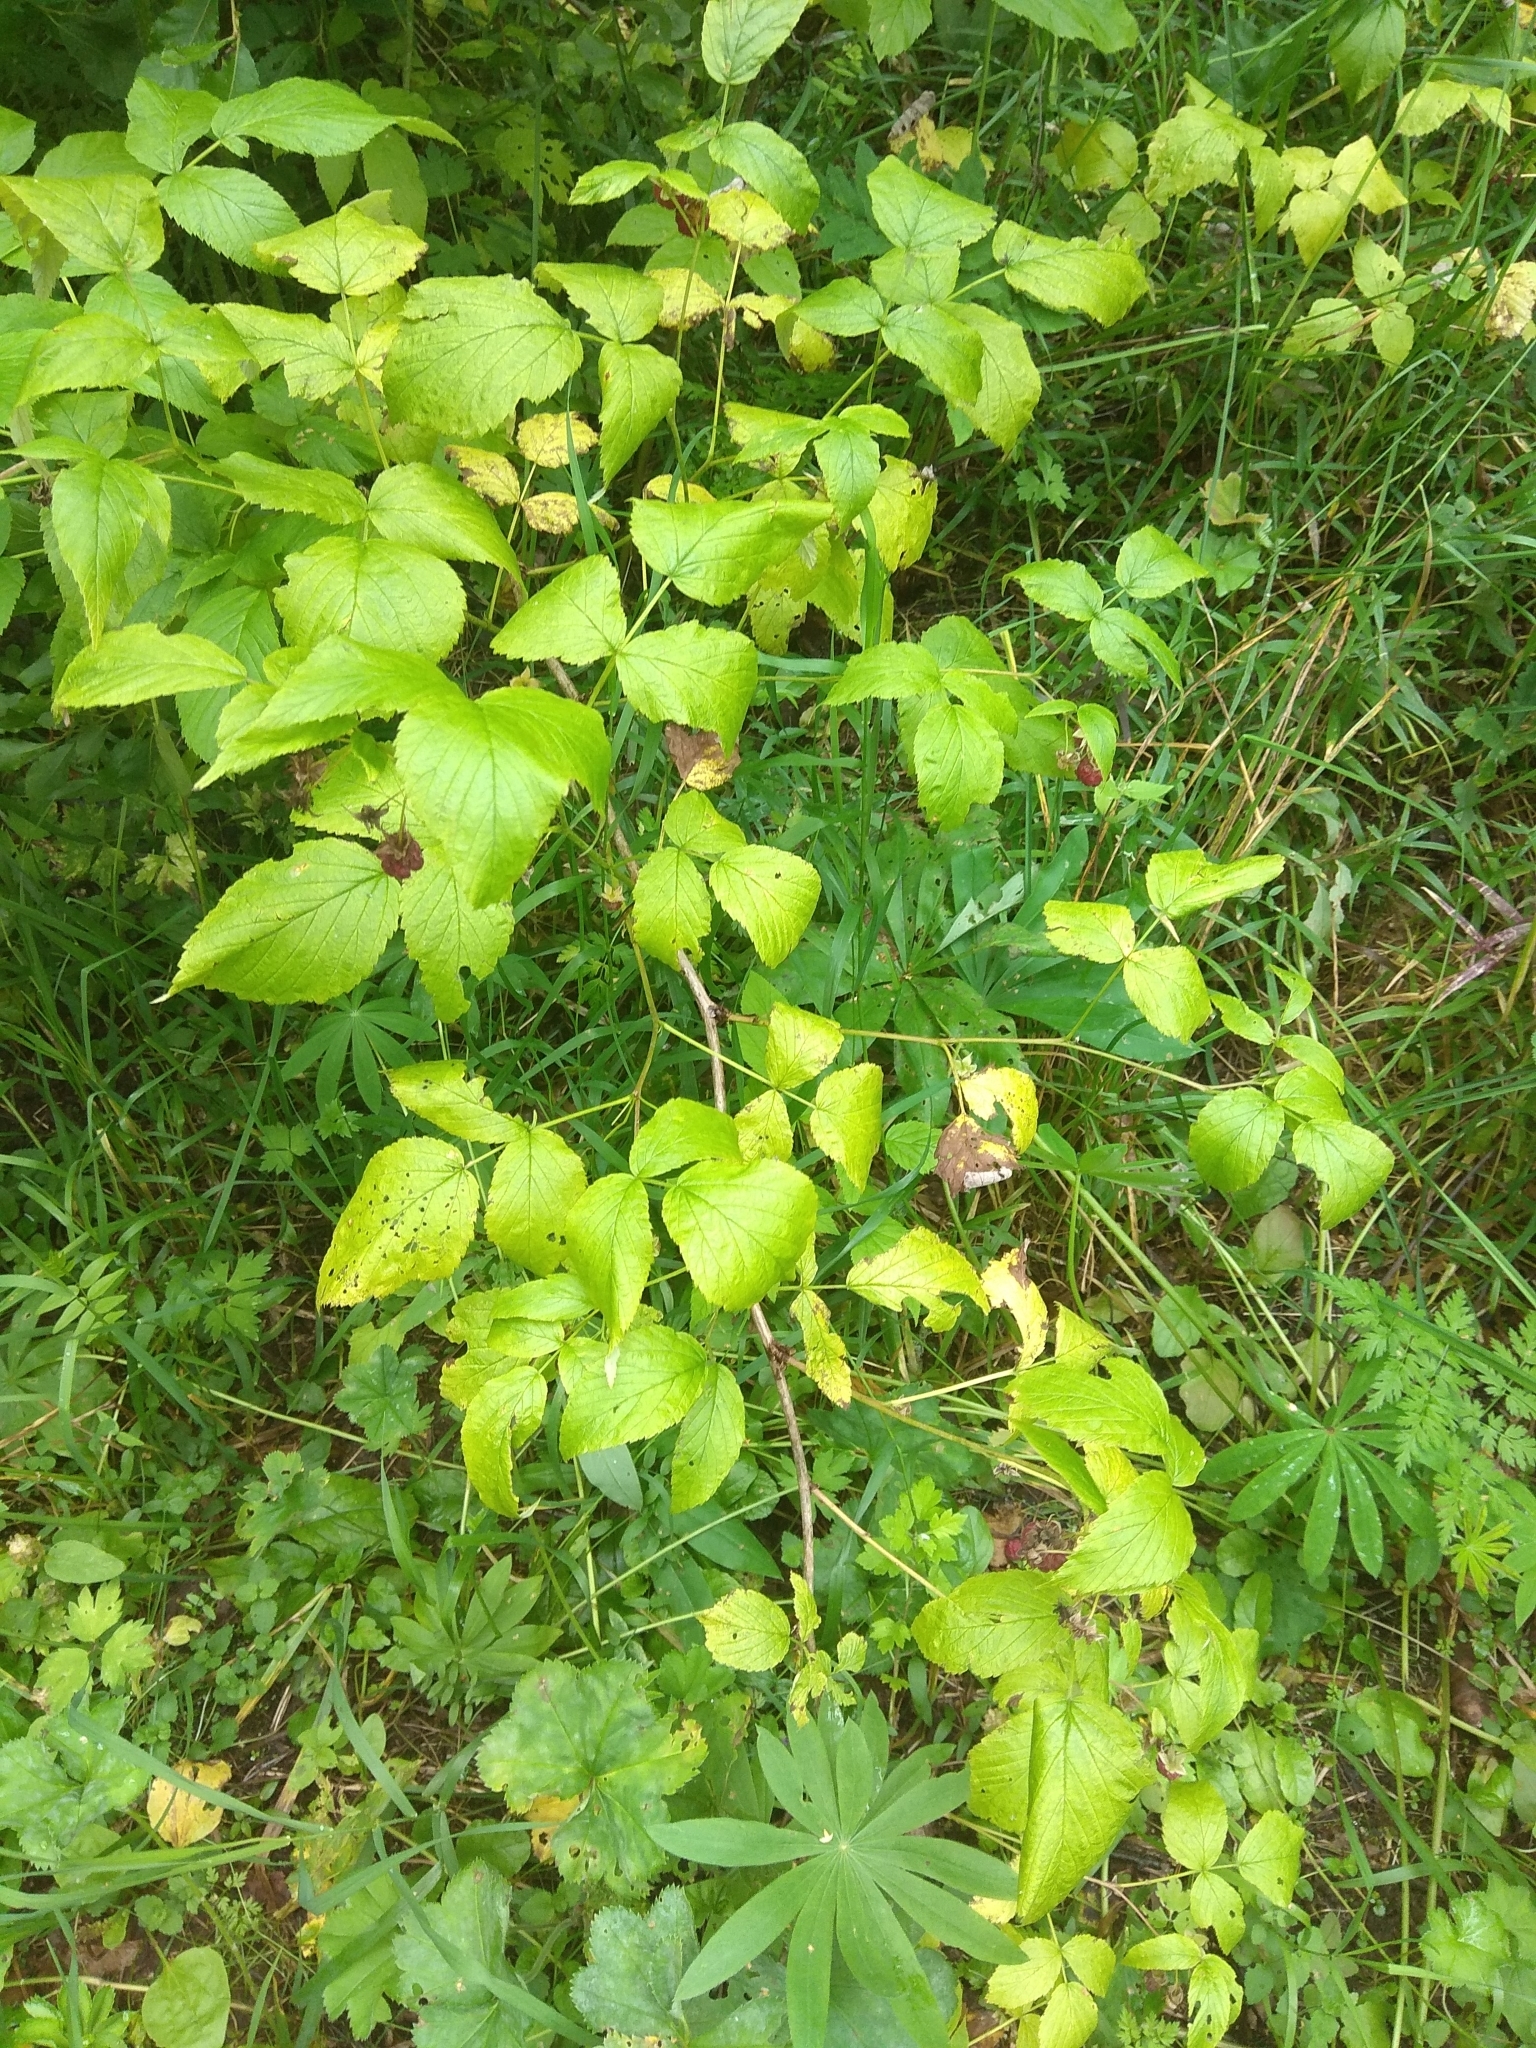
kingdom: Plantae
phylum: Tracheophyta
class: Magnoliopsida
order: Rosales
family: Rosaceae
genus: Rubus
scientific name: Rubus idaeus
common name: Raspberry
